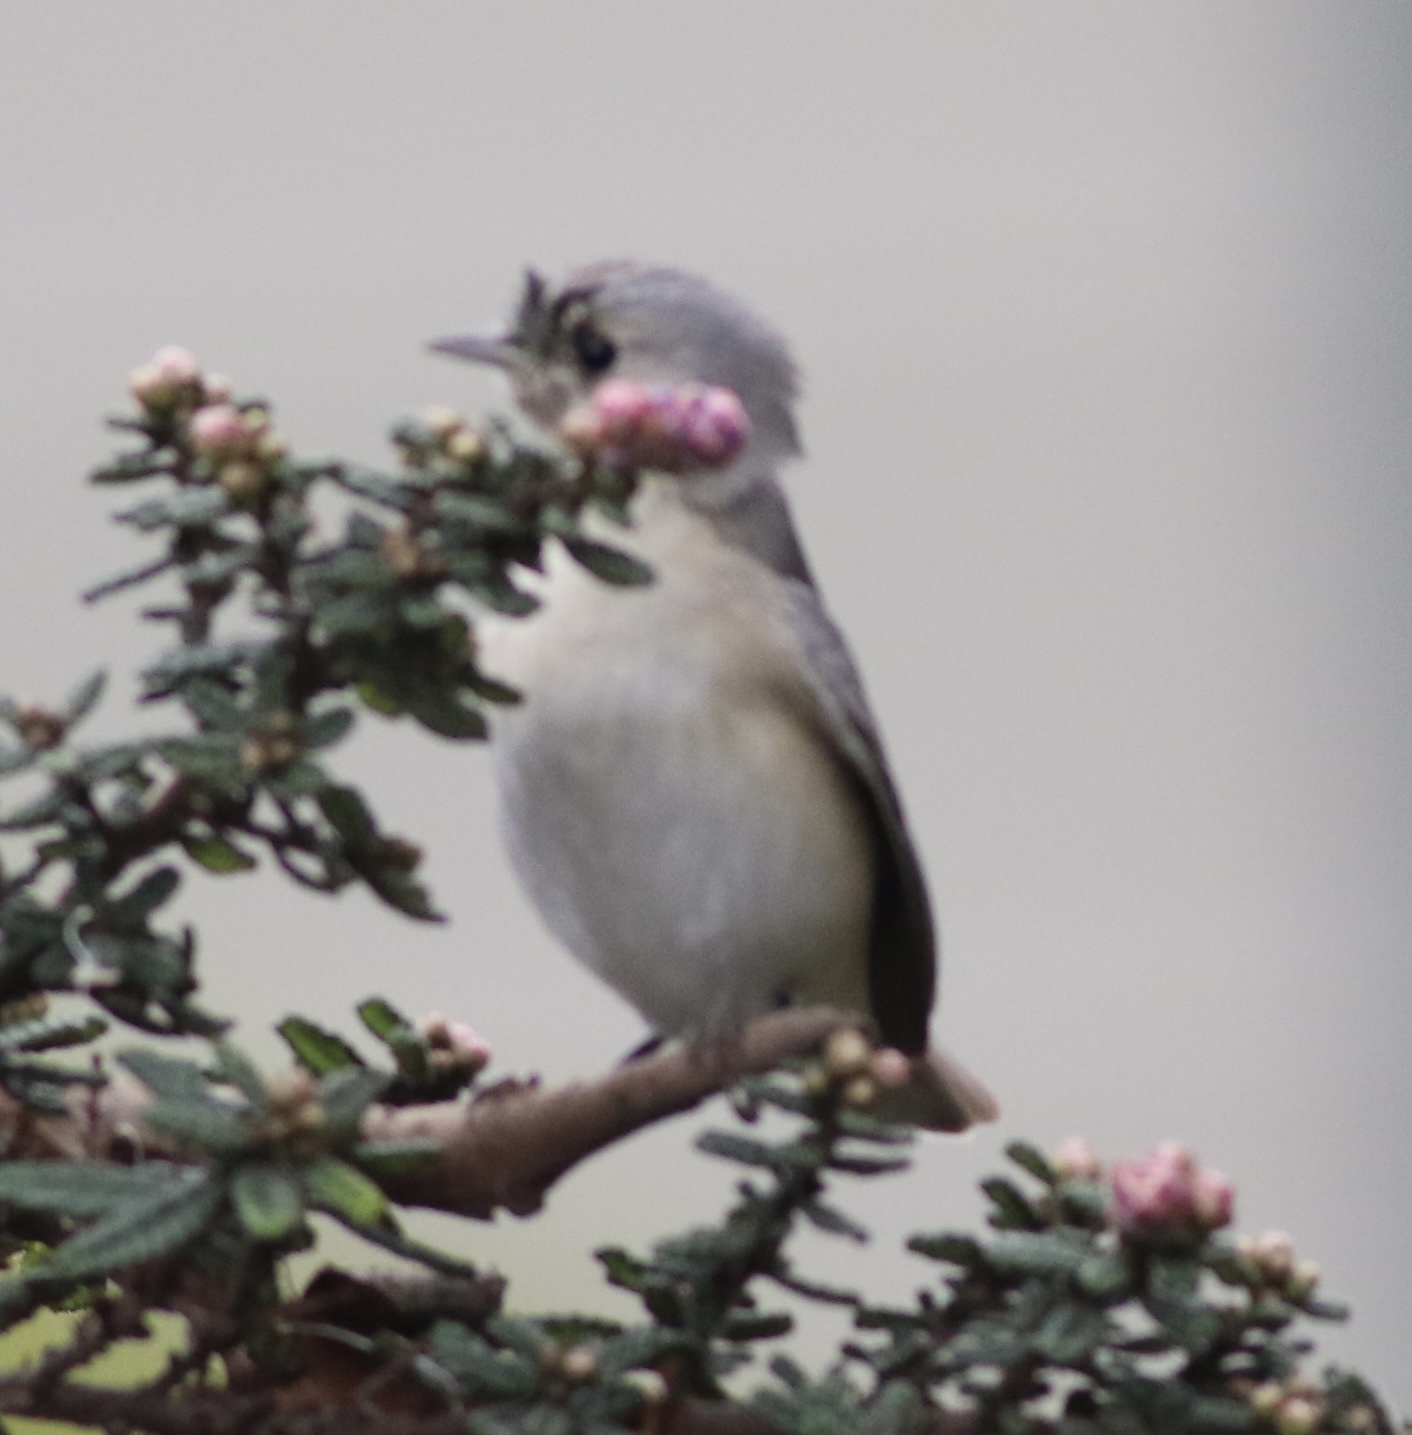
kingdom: Animalia
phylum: Chordata
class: Aves
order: Passeriformes
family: Parulidae
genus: Leiothlypis
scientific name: Leiothlypis luciae
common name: Lucy's warbler
